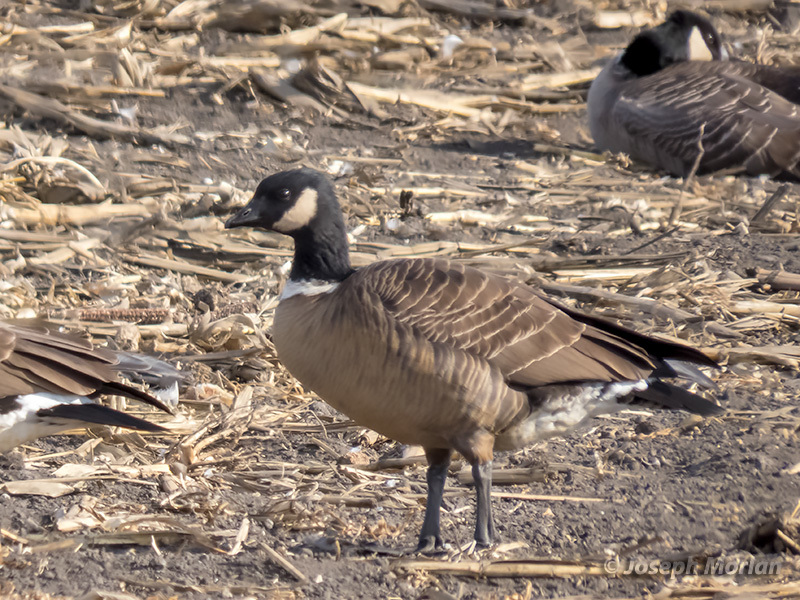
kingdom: Animalia
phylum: Chordata
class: Aves
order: Anseriformes
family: Anatidae
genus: Branta
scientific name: Branta hutchinsii
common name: Cackling goose
